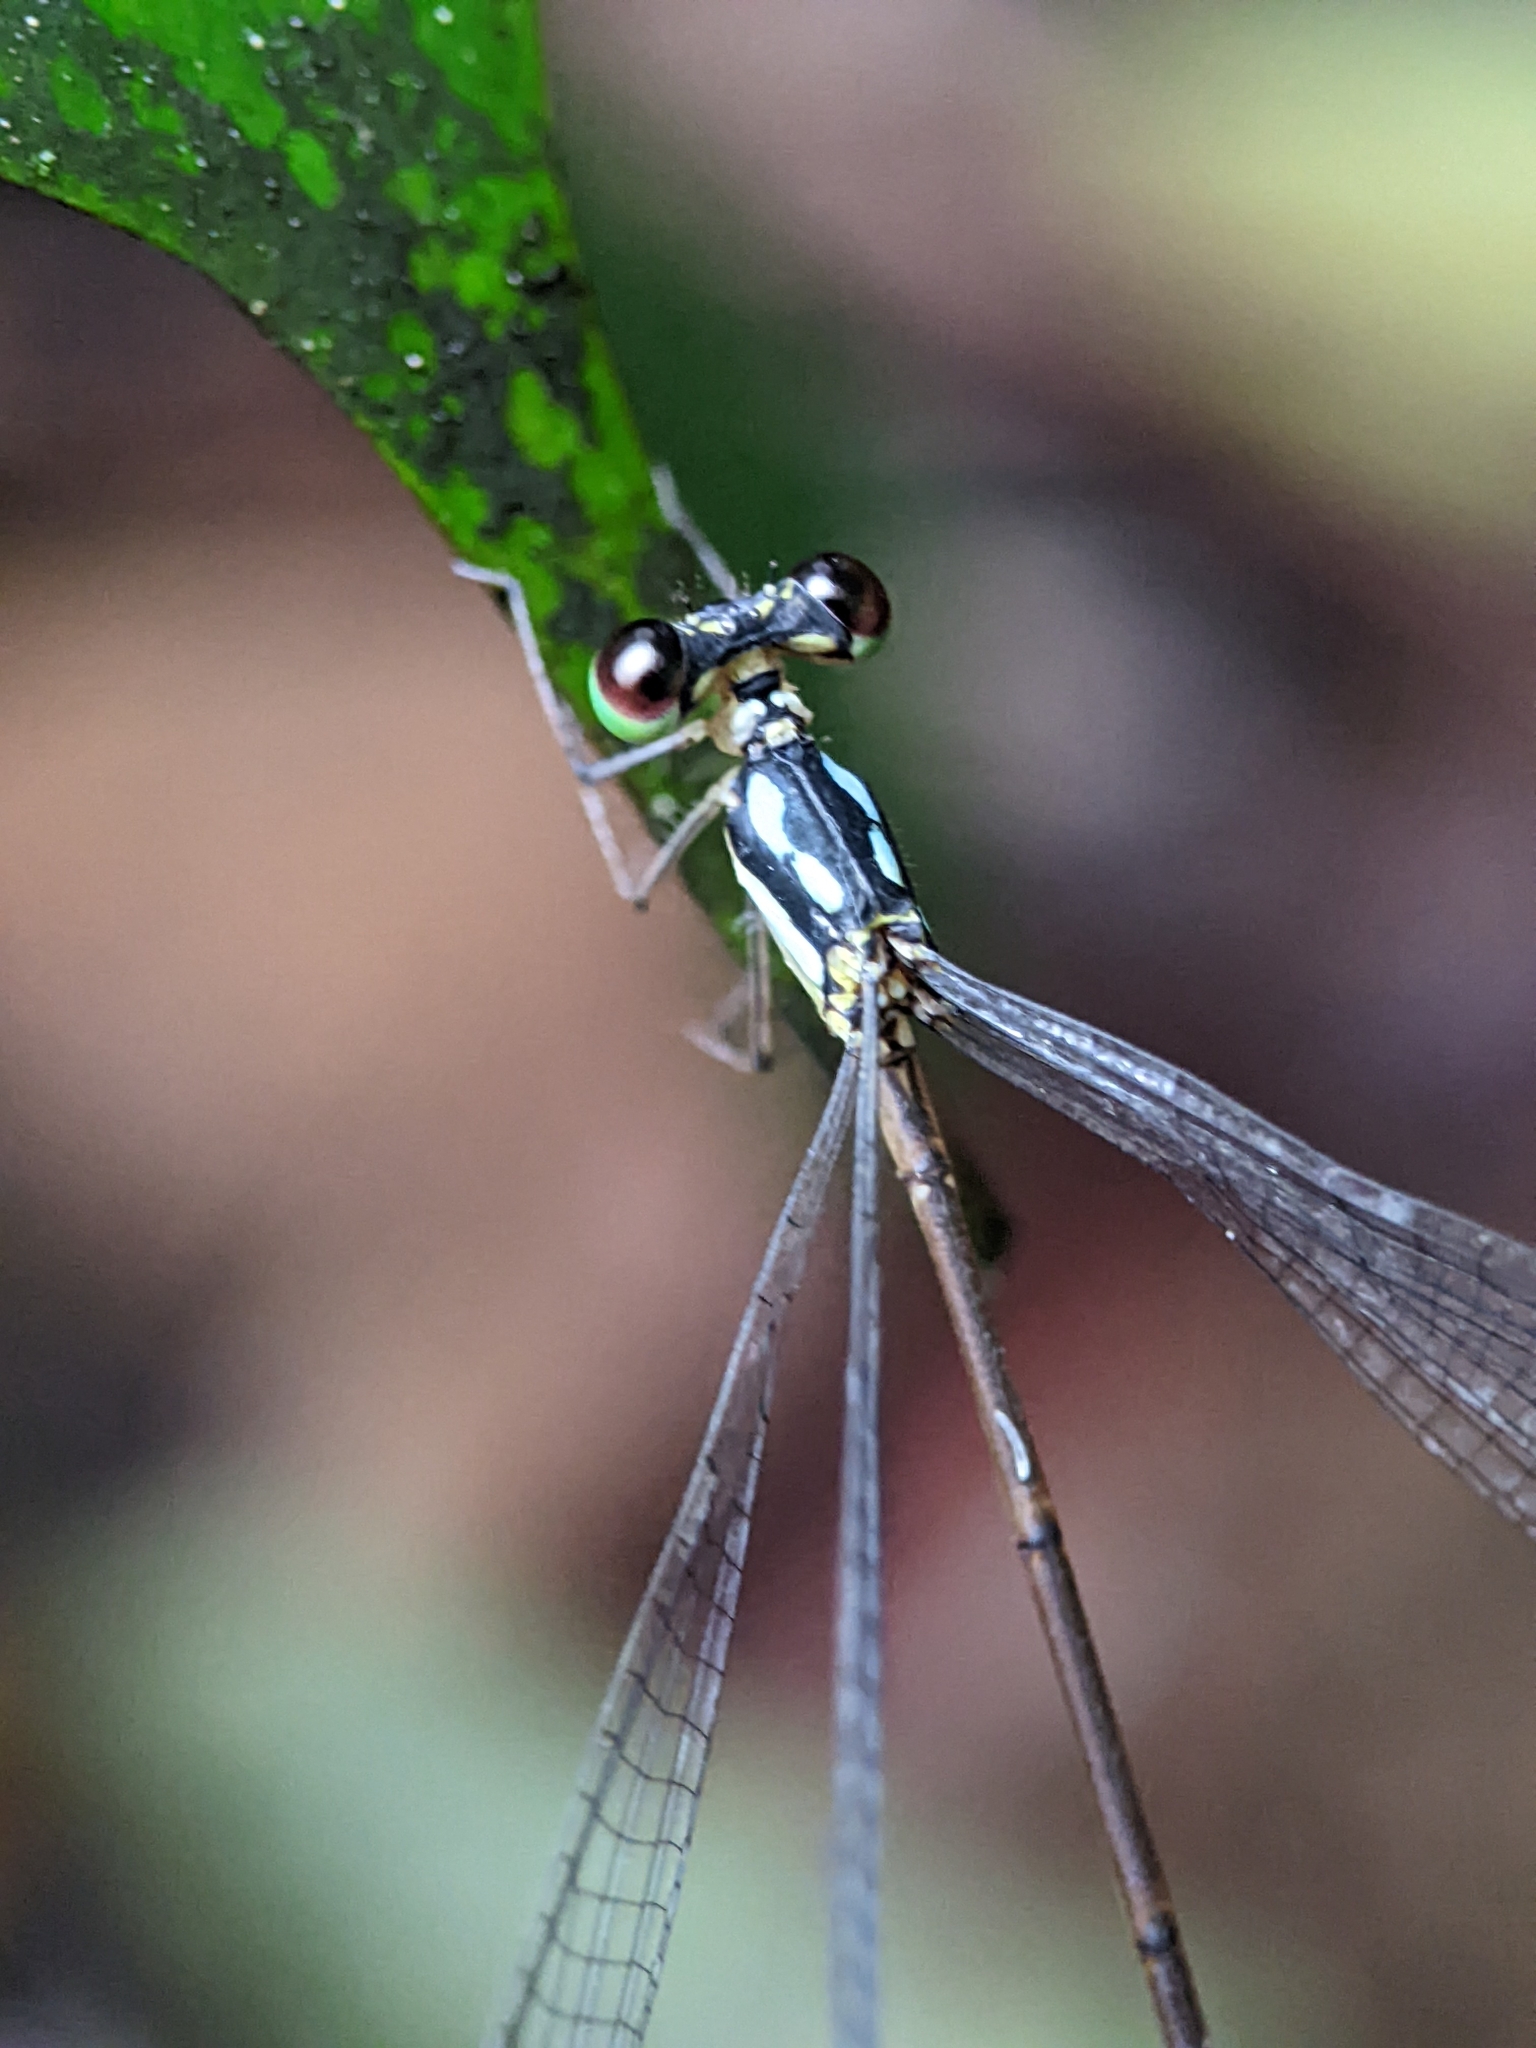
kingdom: Animalia
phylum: Arthropoda
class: Insecta
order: Odonata
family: Platycnemididae
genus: Coeliccia
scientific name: Coeliccia octogesima
